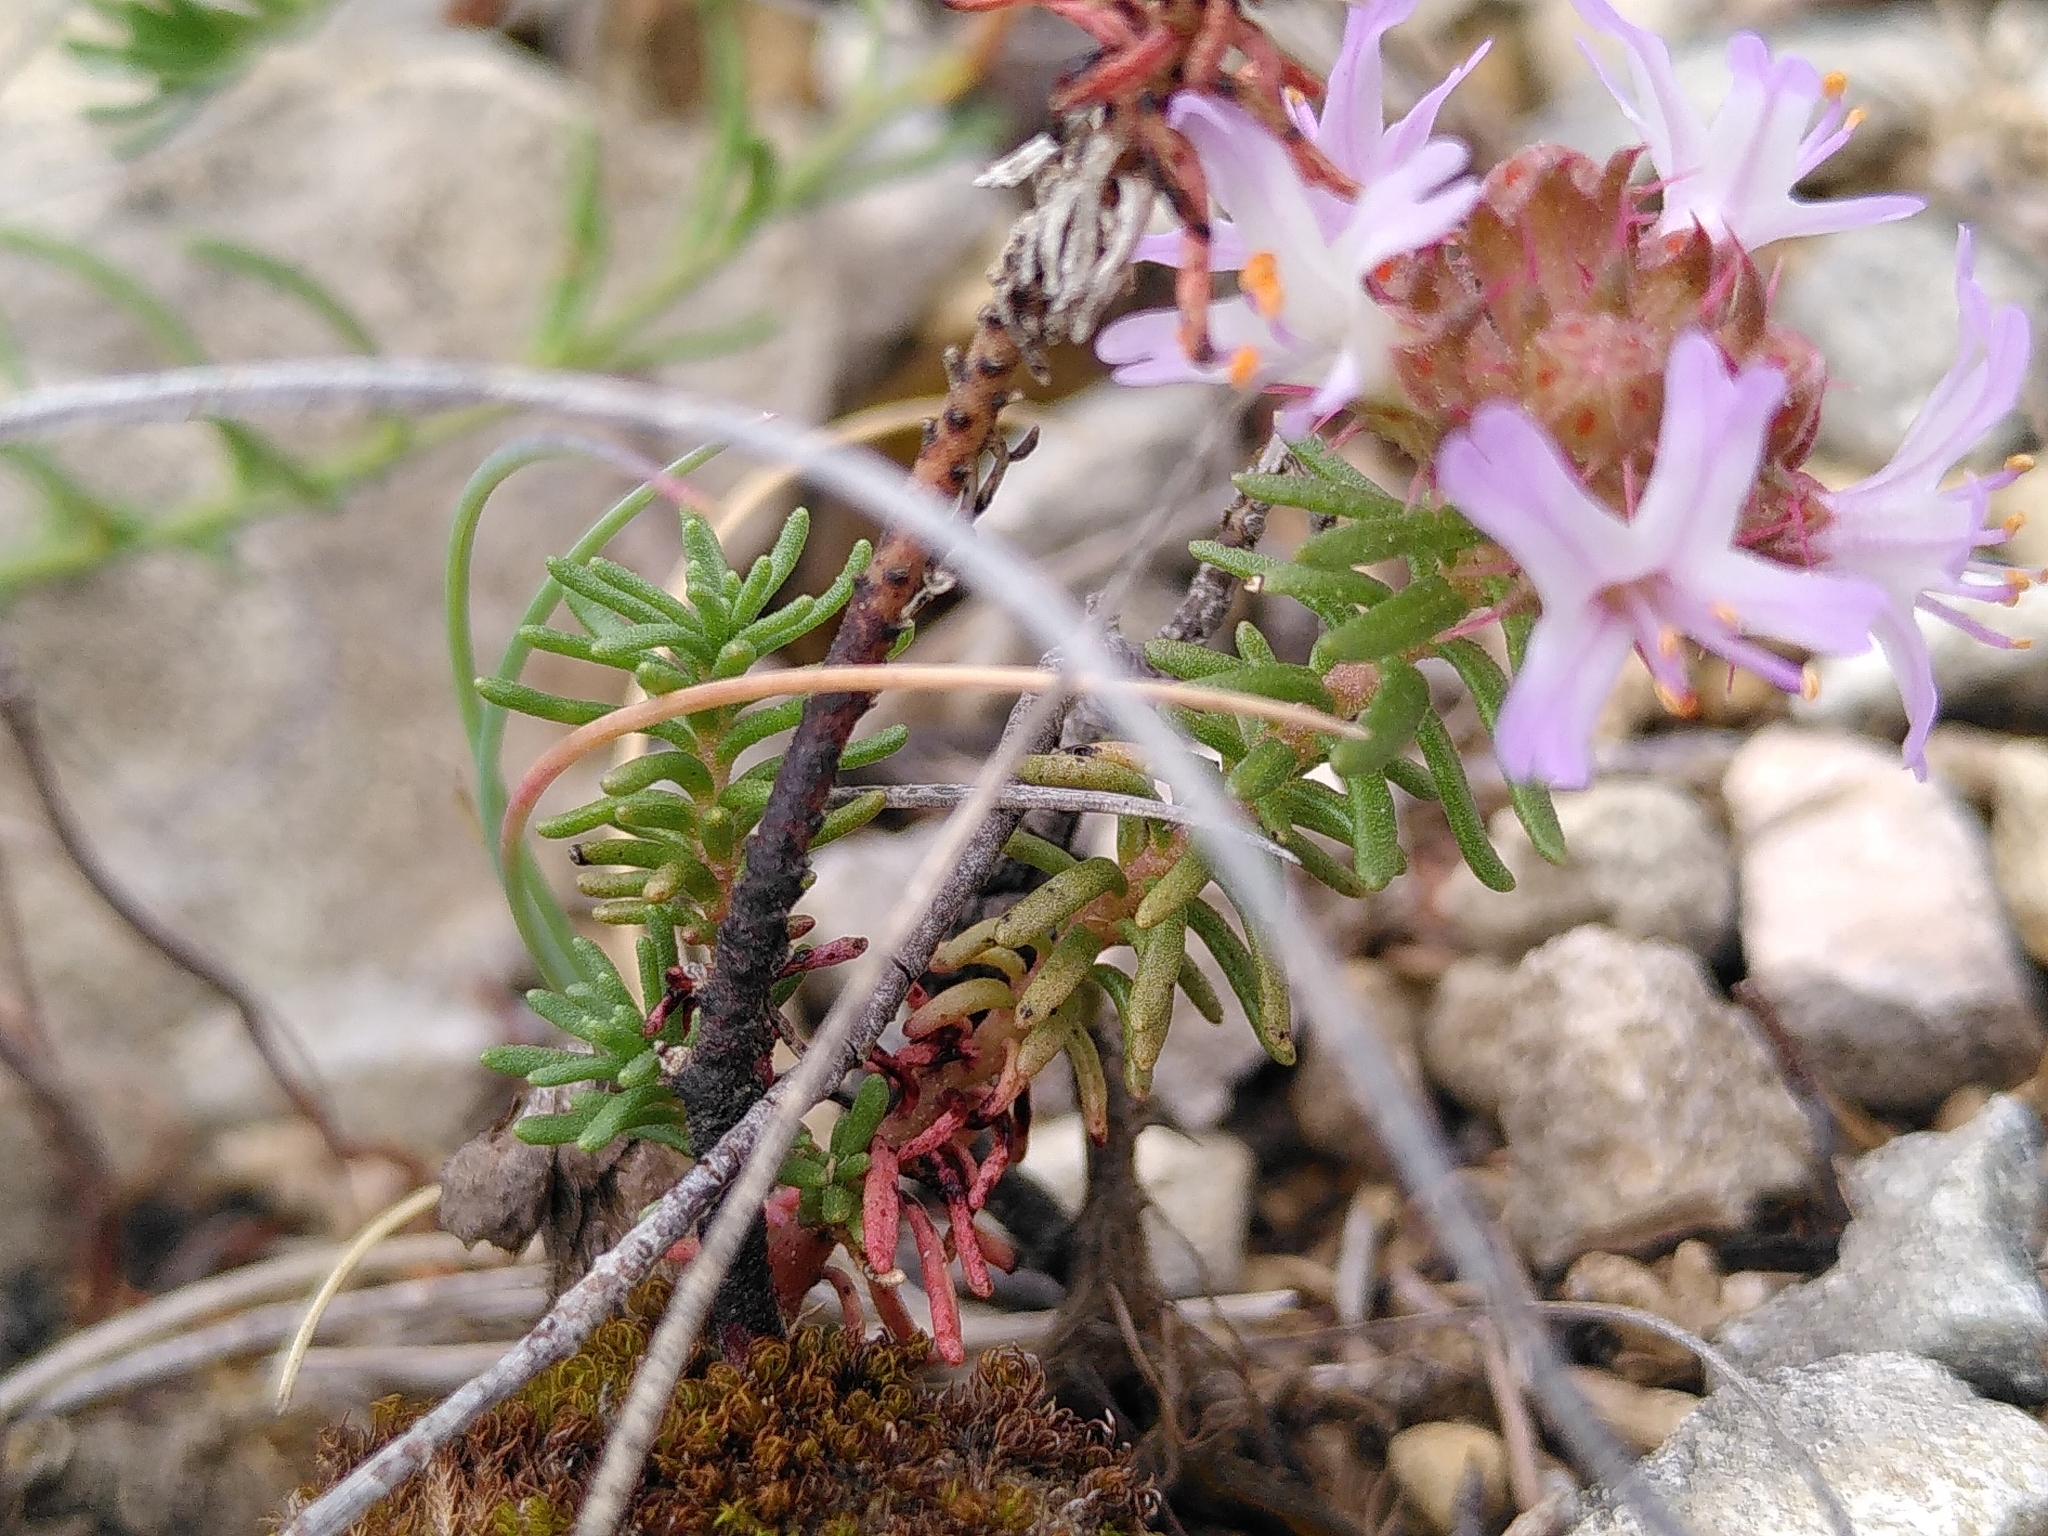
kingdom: Plantae
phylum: Tracheophyta
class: Magnoliopsida
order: Ericales
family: Primulaceae
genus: Coris
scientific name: Coris monspeliensis
